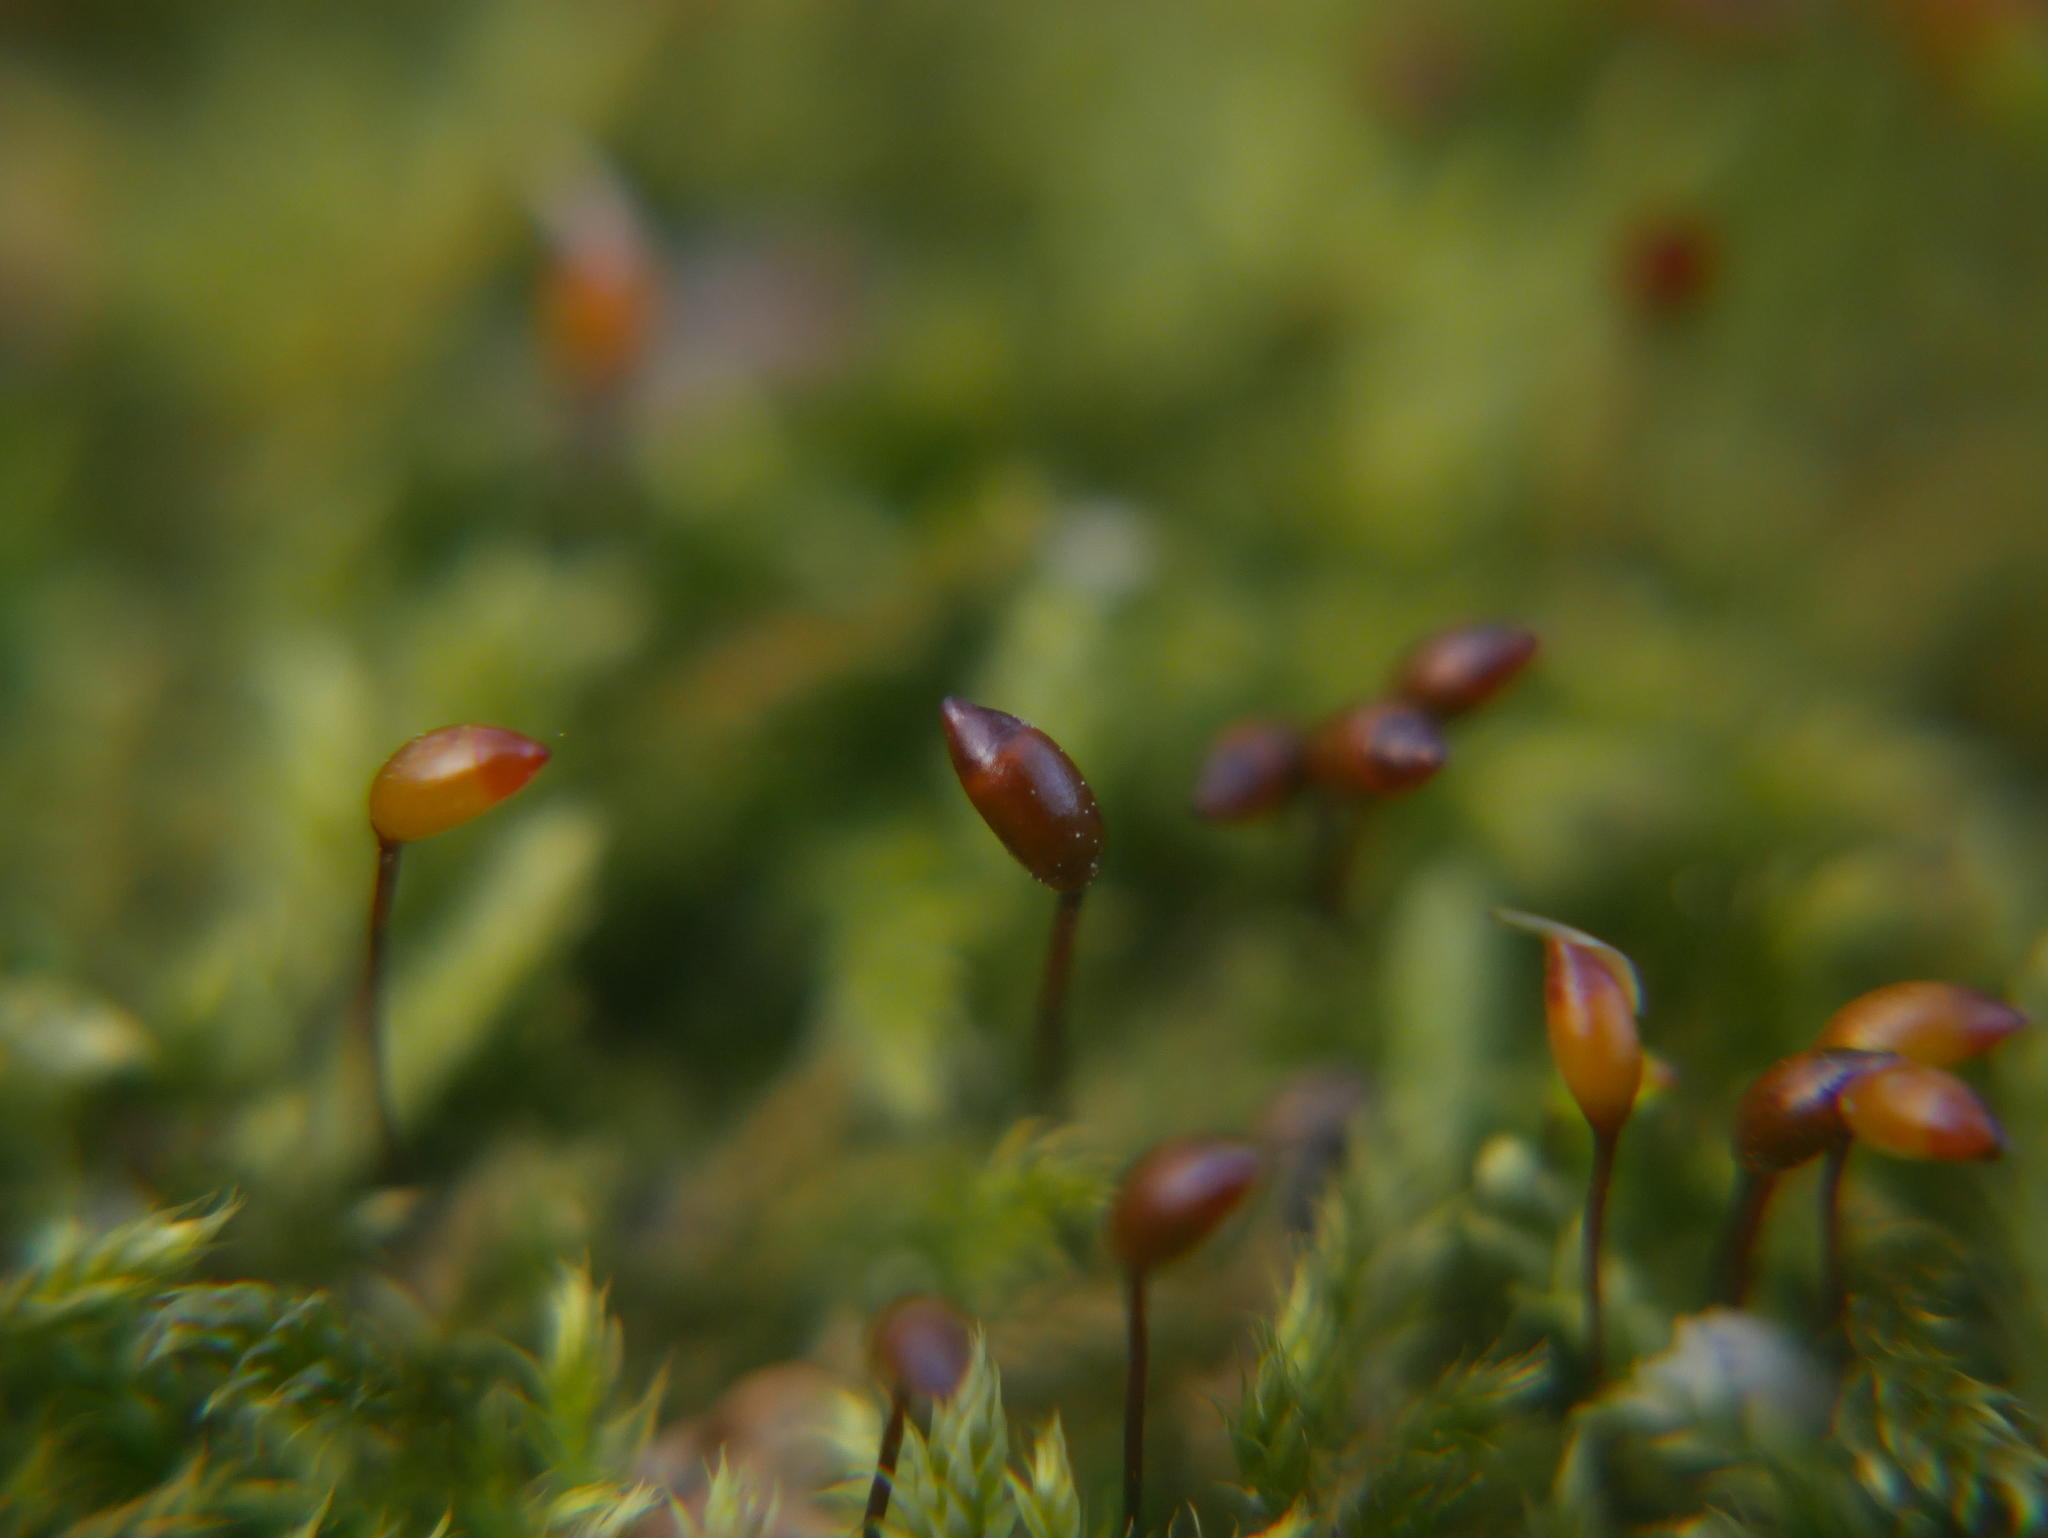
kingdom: Plantae
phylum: Bryophyta
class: Bryopsida
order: Hypnales
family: Hypnaceae
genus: Hypnum
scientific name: Hypnum andoi
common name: Ando's plait moss
